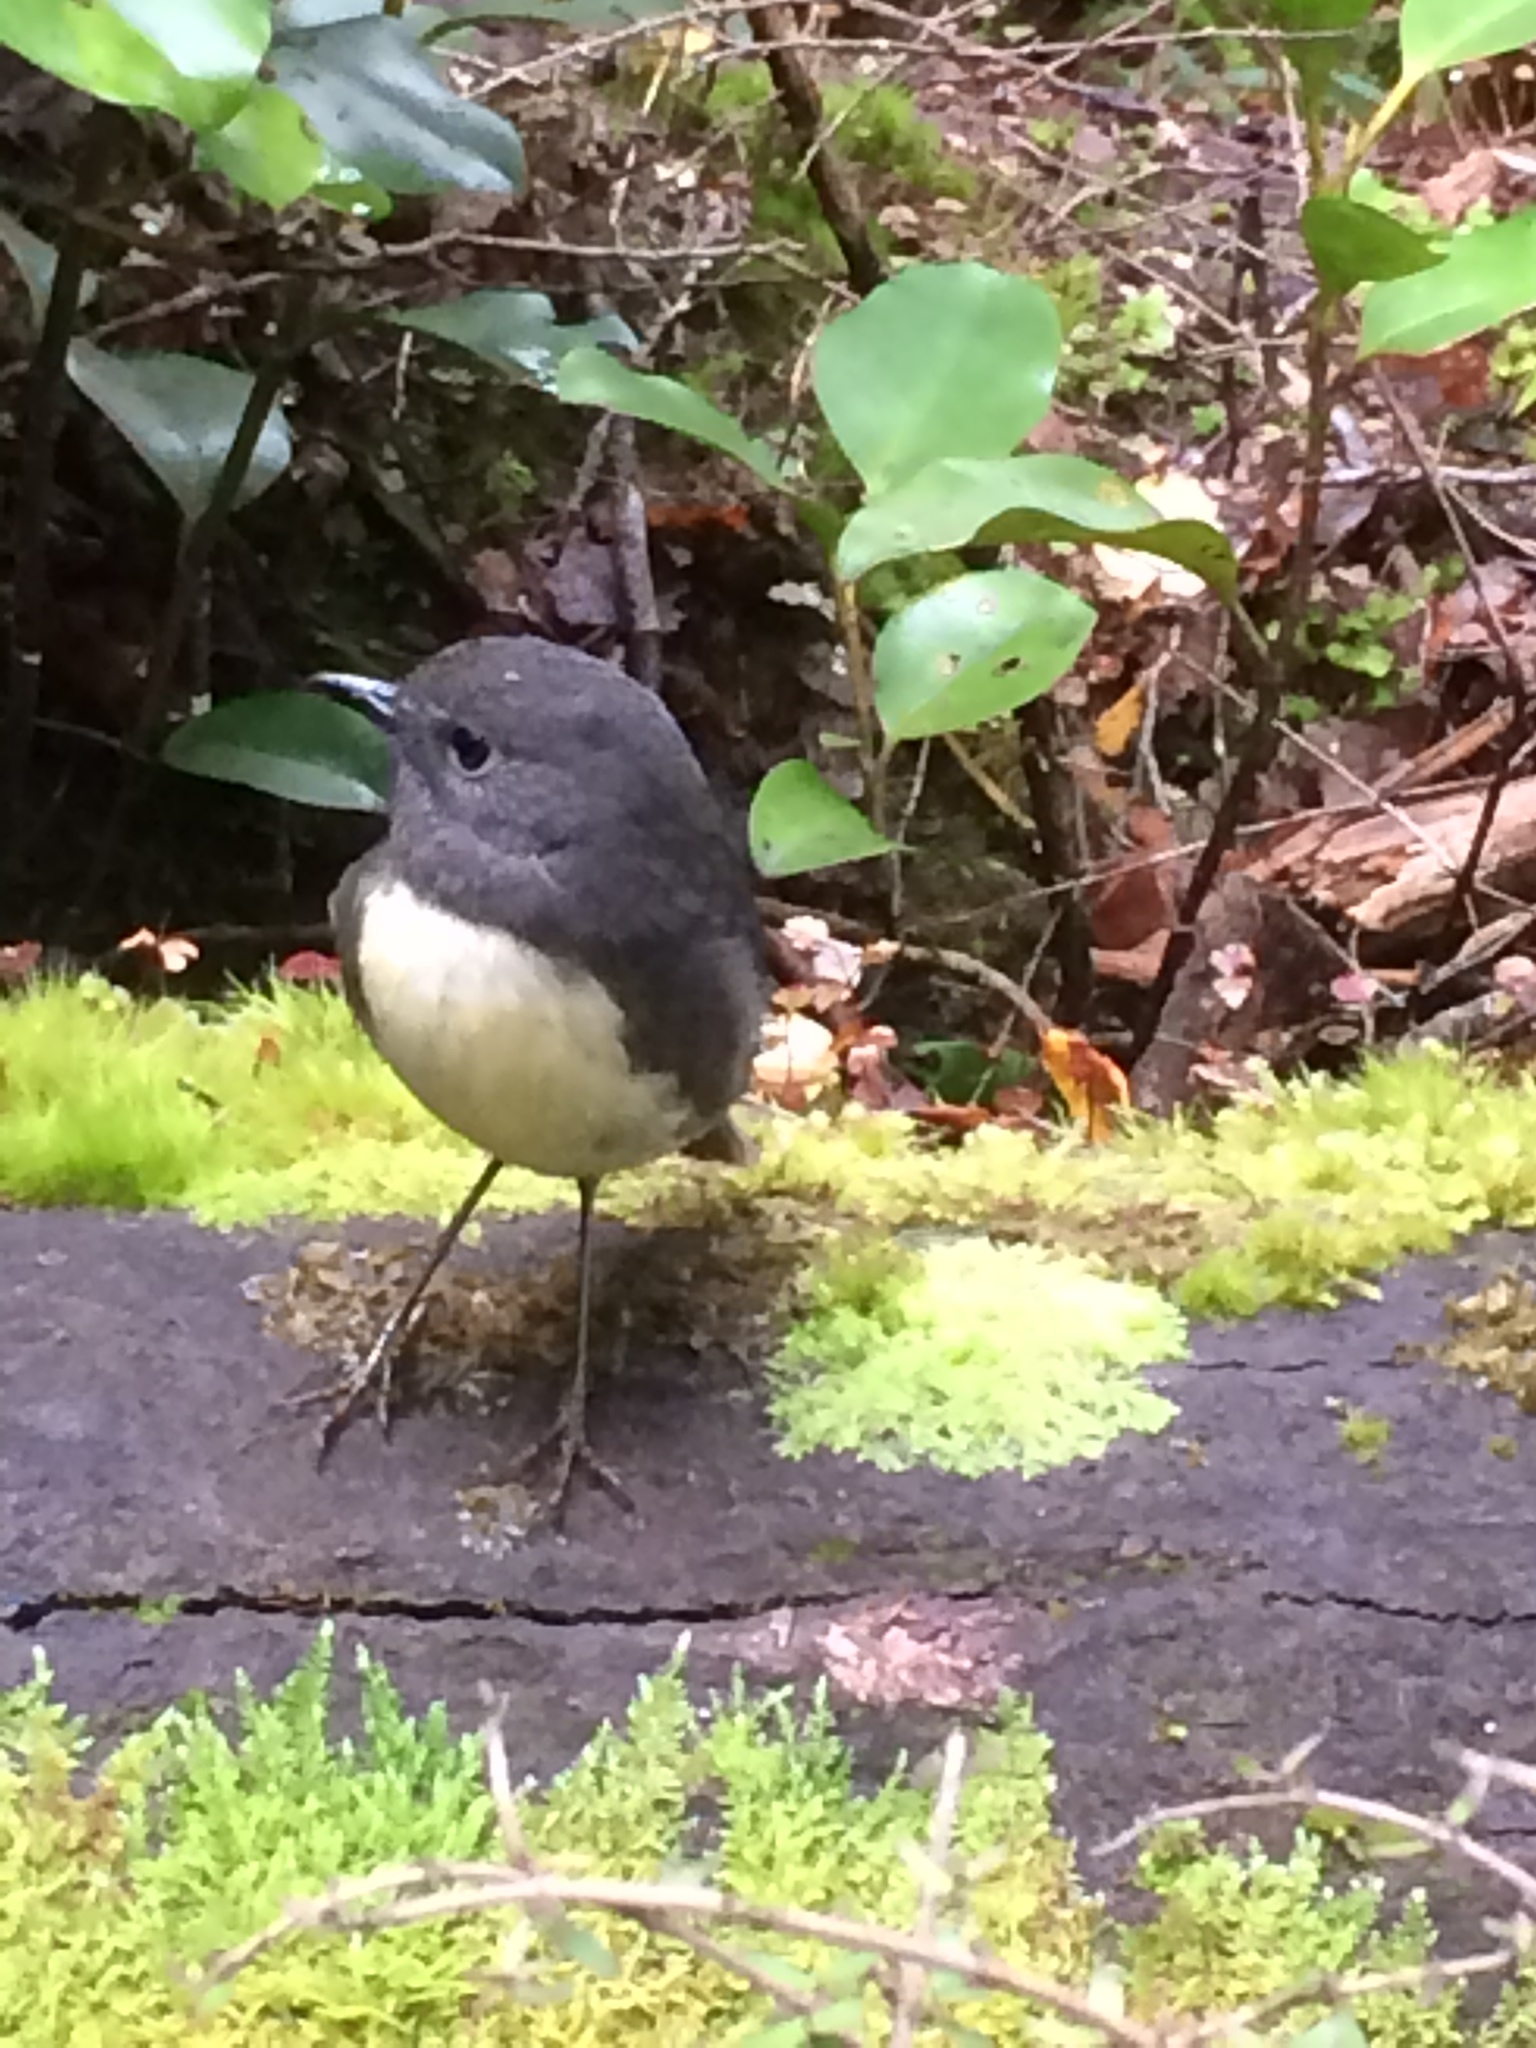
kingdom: Animalia
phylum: Chordata
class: Aves
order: Passeriformes
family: Petroicidae
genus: Petroica
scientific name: Petroica australis
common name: New zealand robin
